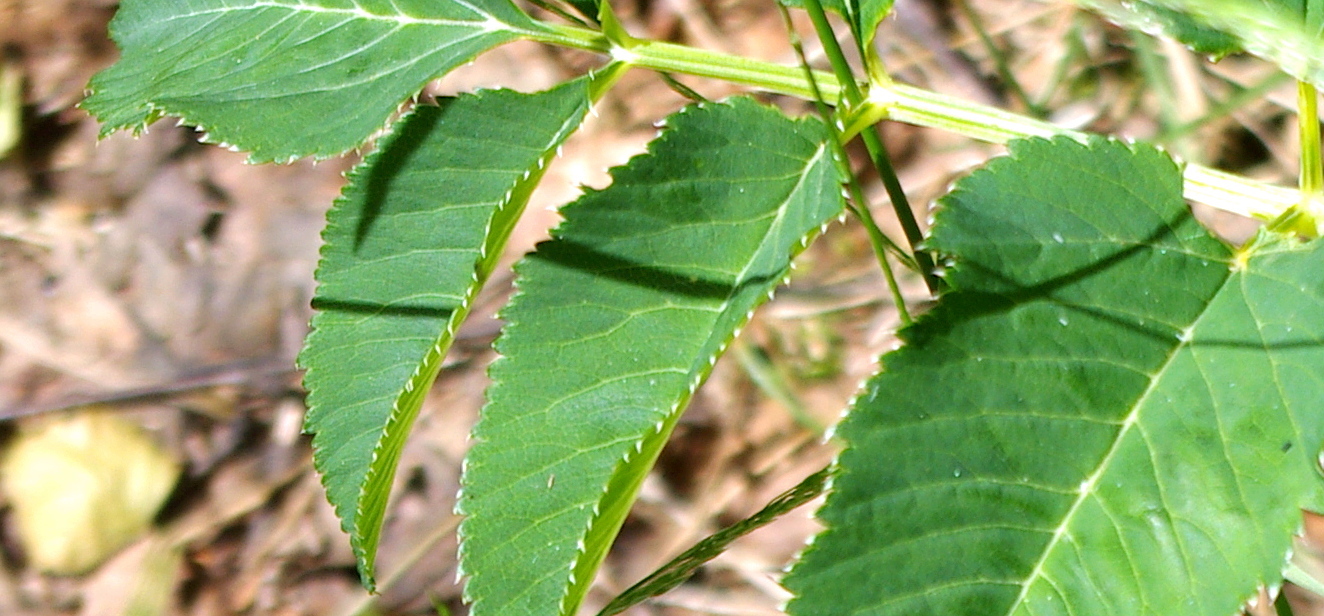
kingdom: Plantae
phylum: Tracheophyta
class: Magnoliopsida
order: Apiales
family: Apiaceae
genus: Angelica
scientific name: Angelica sylvestris
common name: Wild angelica
